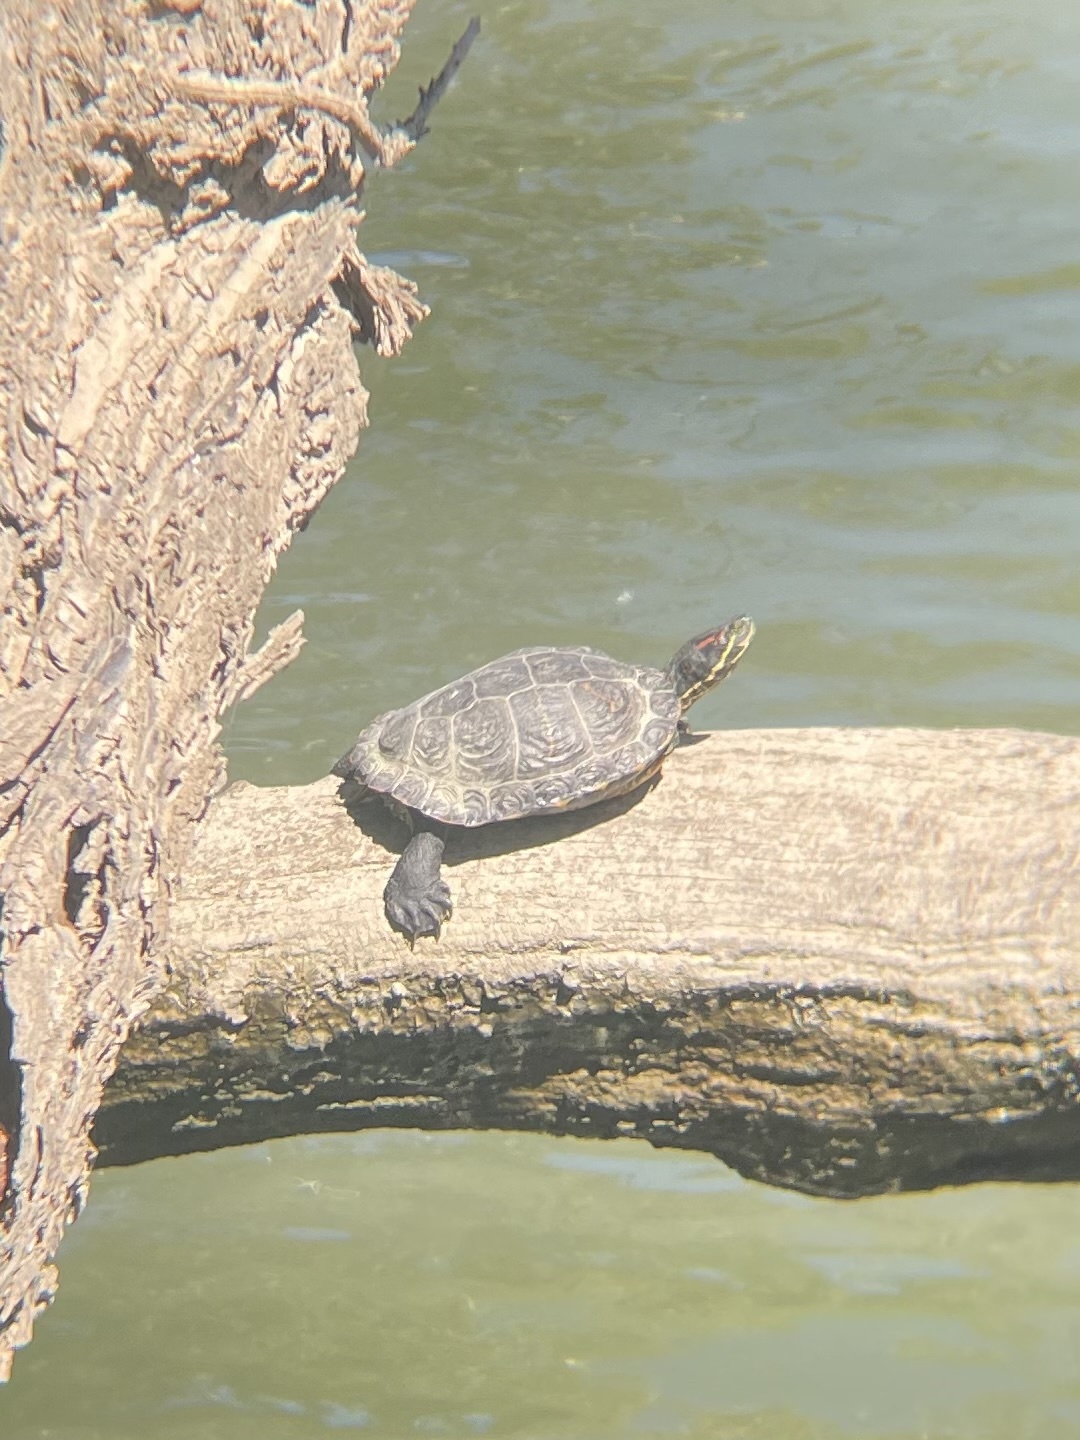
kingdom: Animalia
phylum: Chordata
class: Testudines
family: Emydidae
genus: Trachemys
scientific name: Trachemys scripta
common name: Slider
